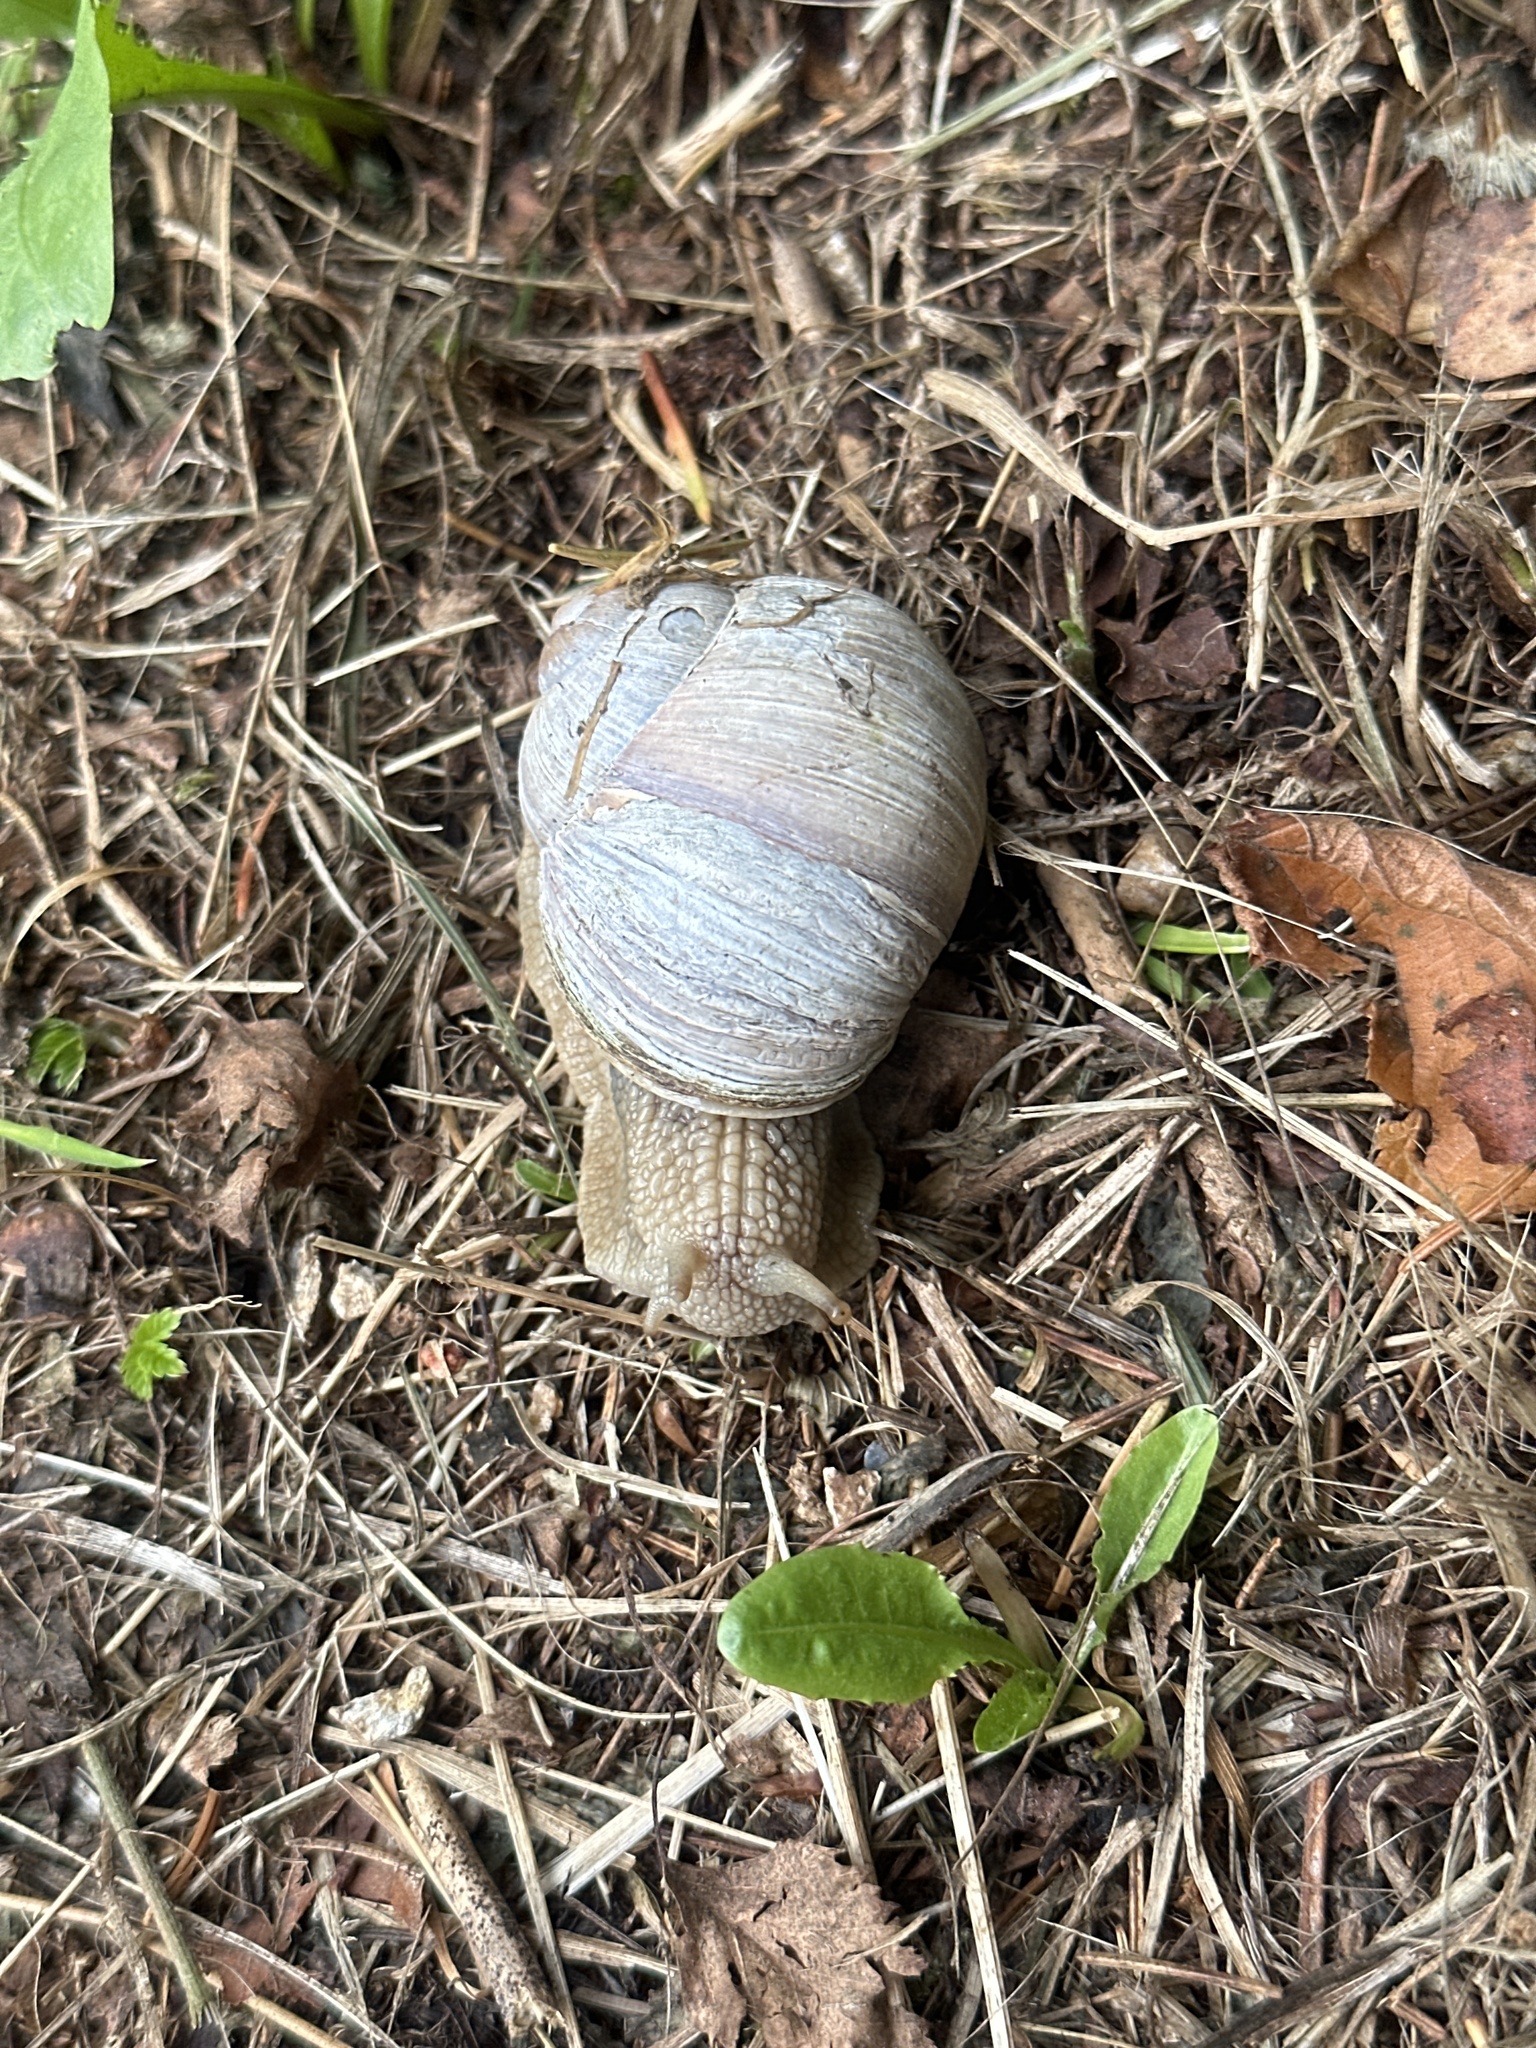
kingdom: Animalia
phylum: Mollusca
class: Gastropoda
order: Stylommatophora
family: Helicidae
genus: Helix
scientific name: Helix pomatia
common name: Roman snail
